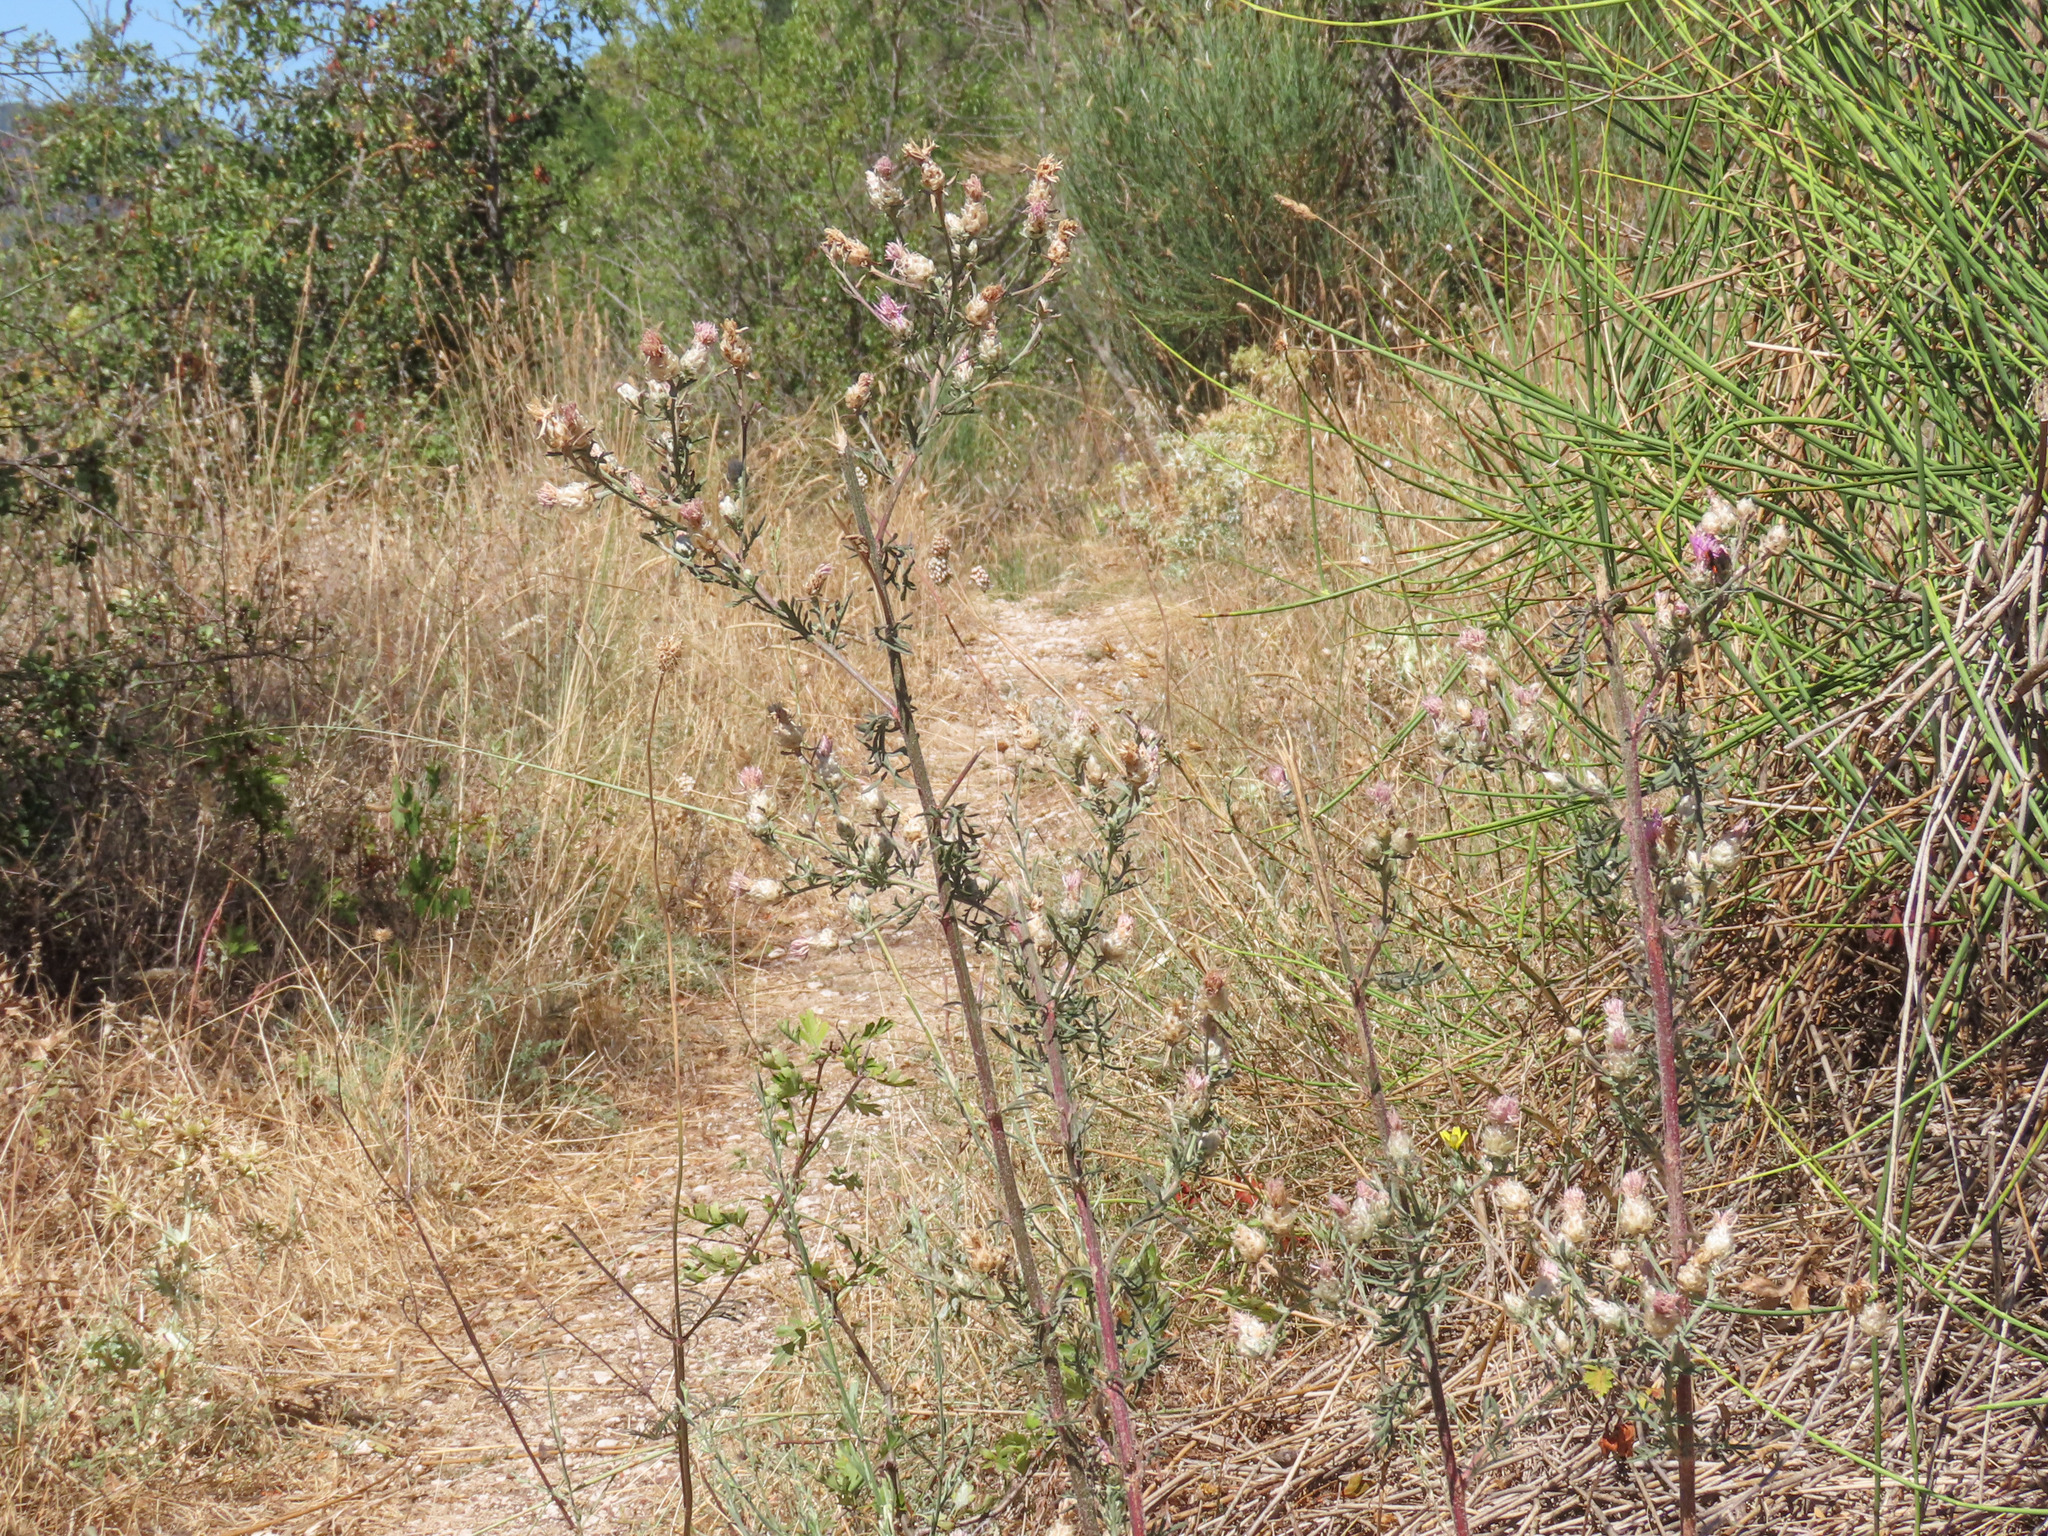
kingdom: Plantae
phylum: Tracheophyta
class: Magnoliopsida
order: Asterales
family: Asteraceae
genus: Centaurea
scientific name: Centaurea deusta
